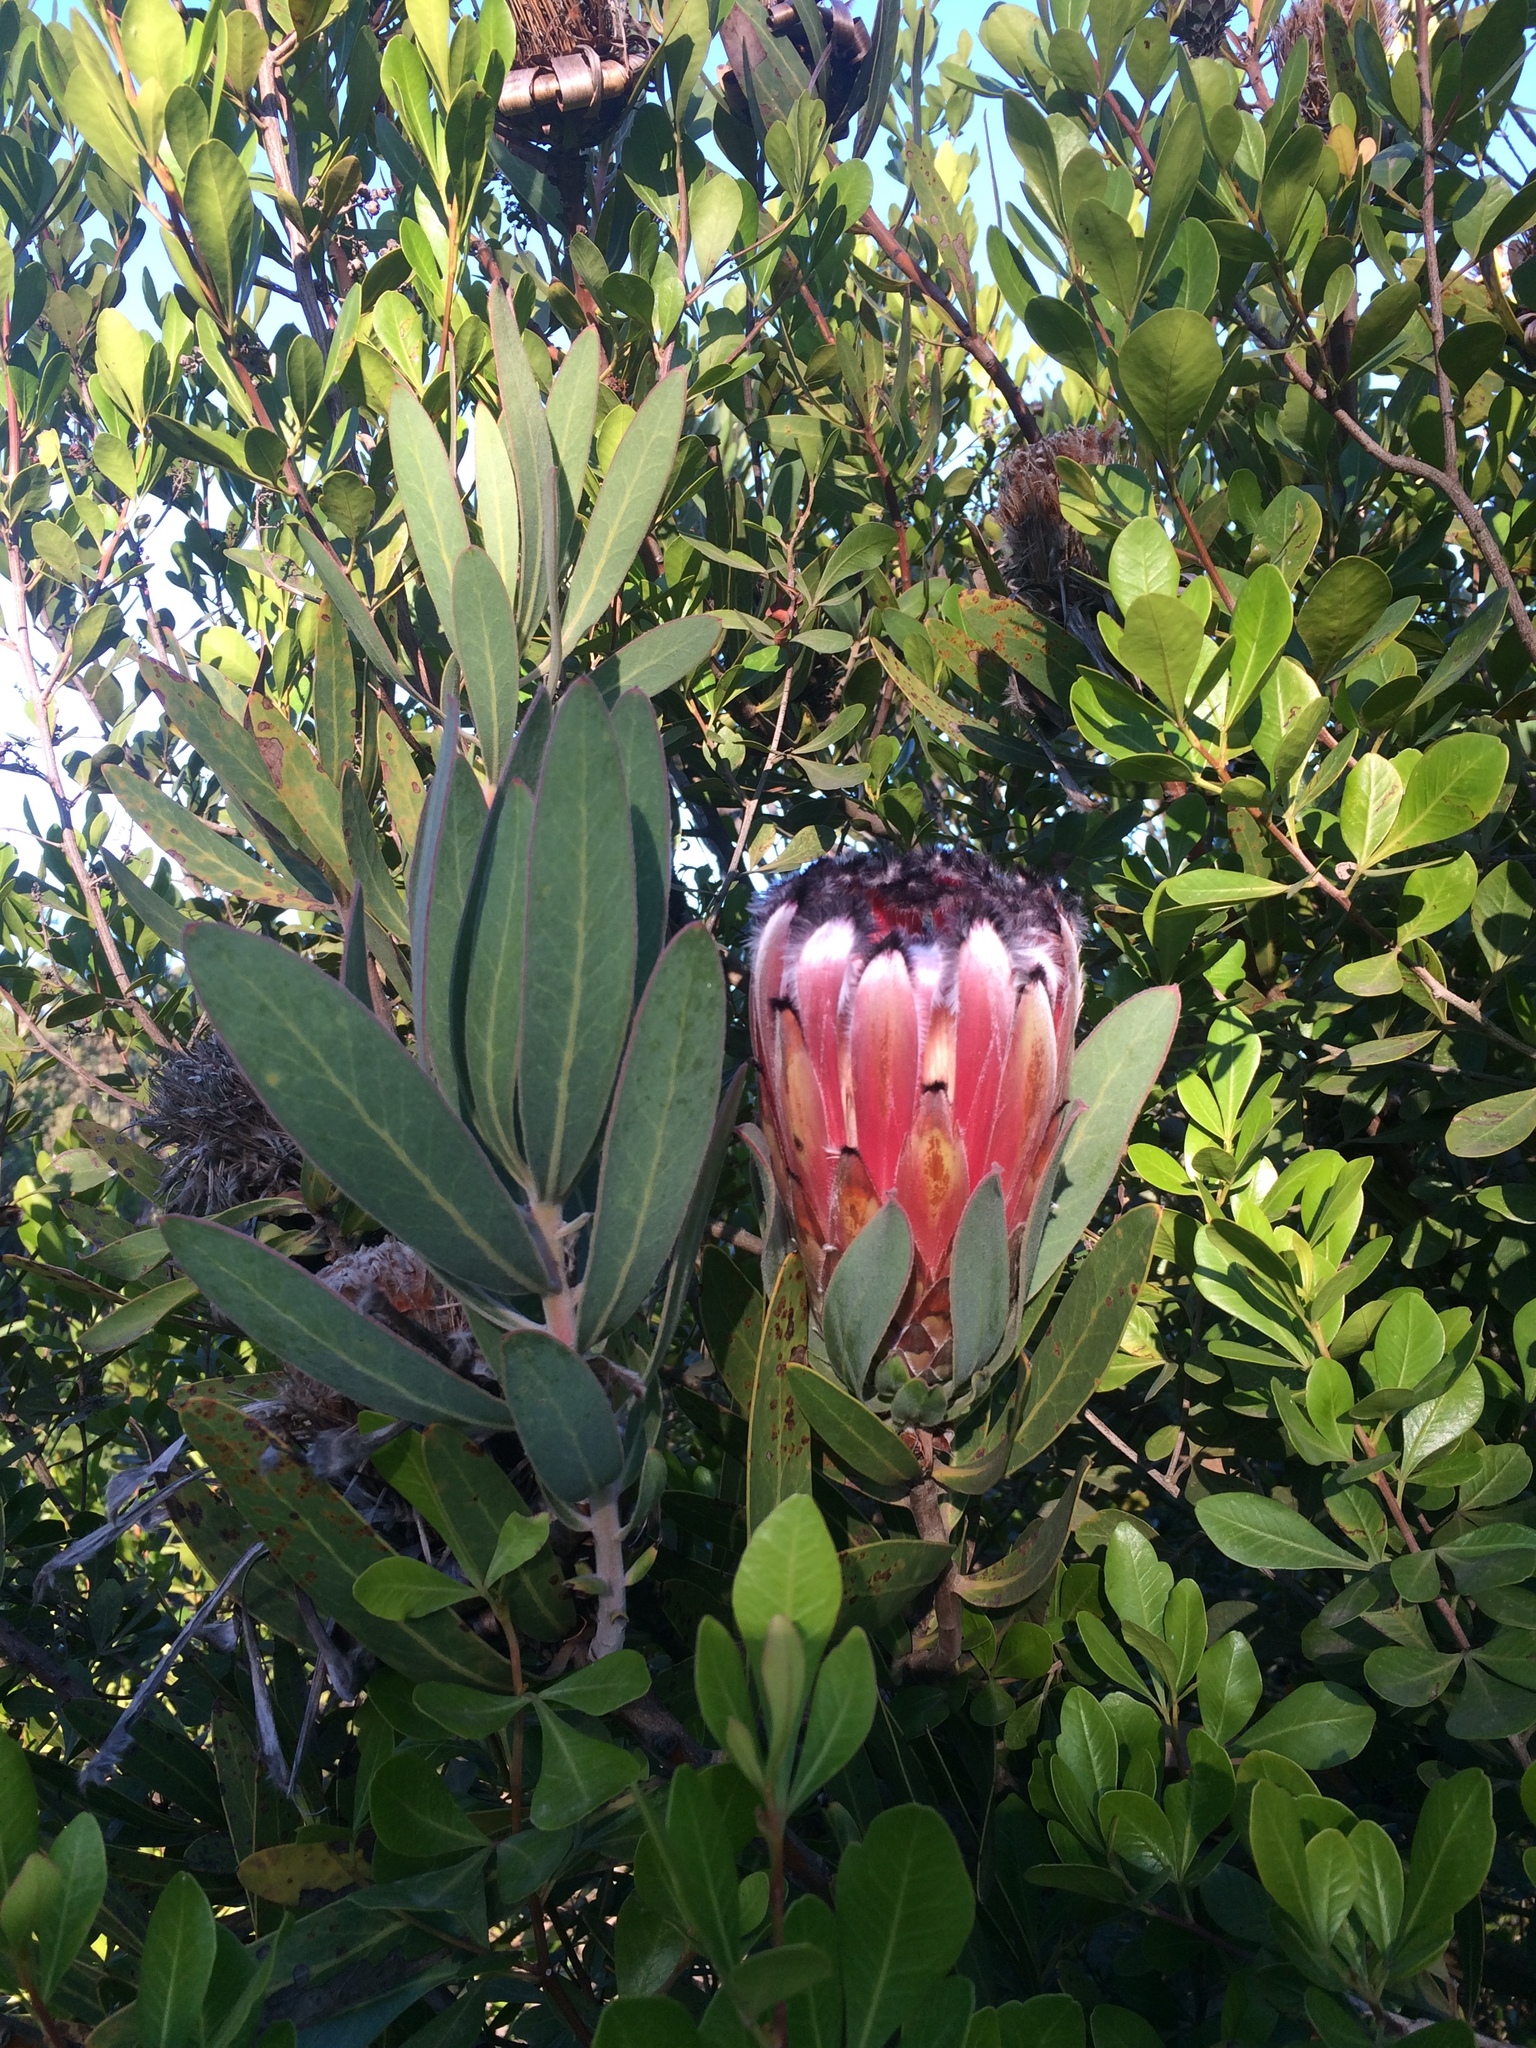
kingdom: Plantae
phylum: Tracheophyta
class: Magnoliopsida
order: Proteales
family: Proteaceae
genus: Protea
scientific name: Protea laurifolia
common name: Grey-leaf sugarbsh
